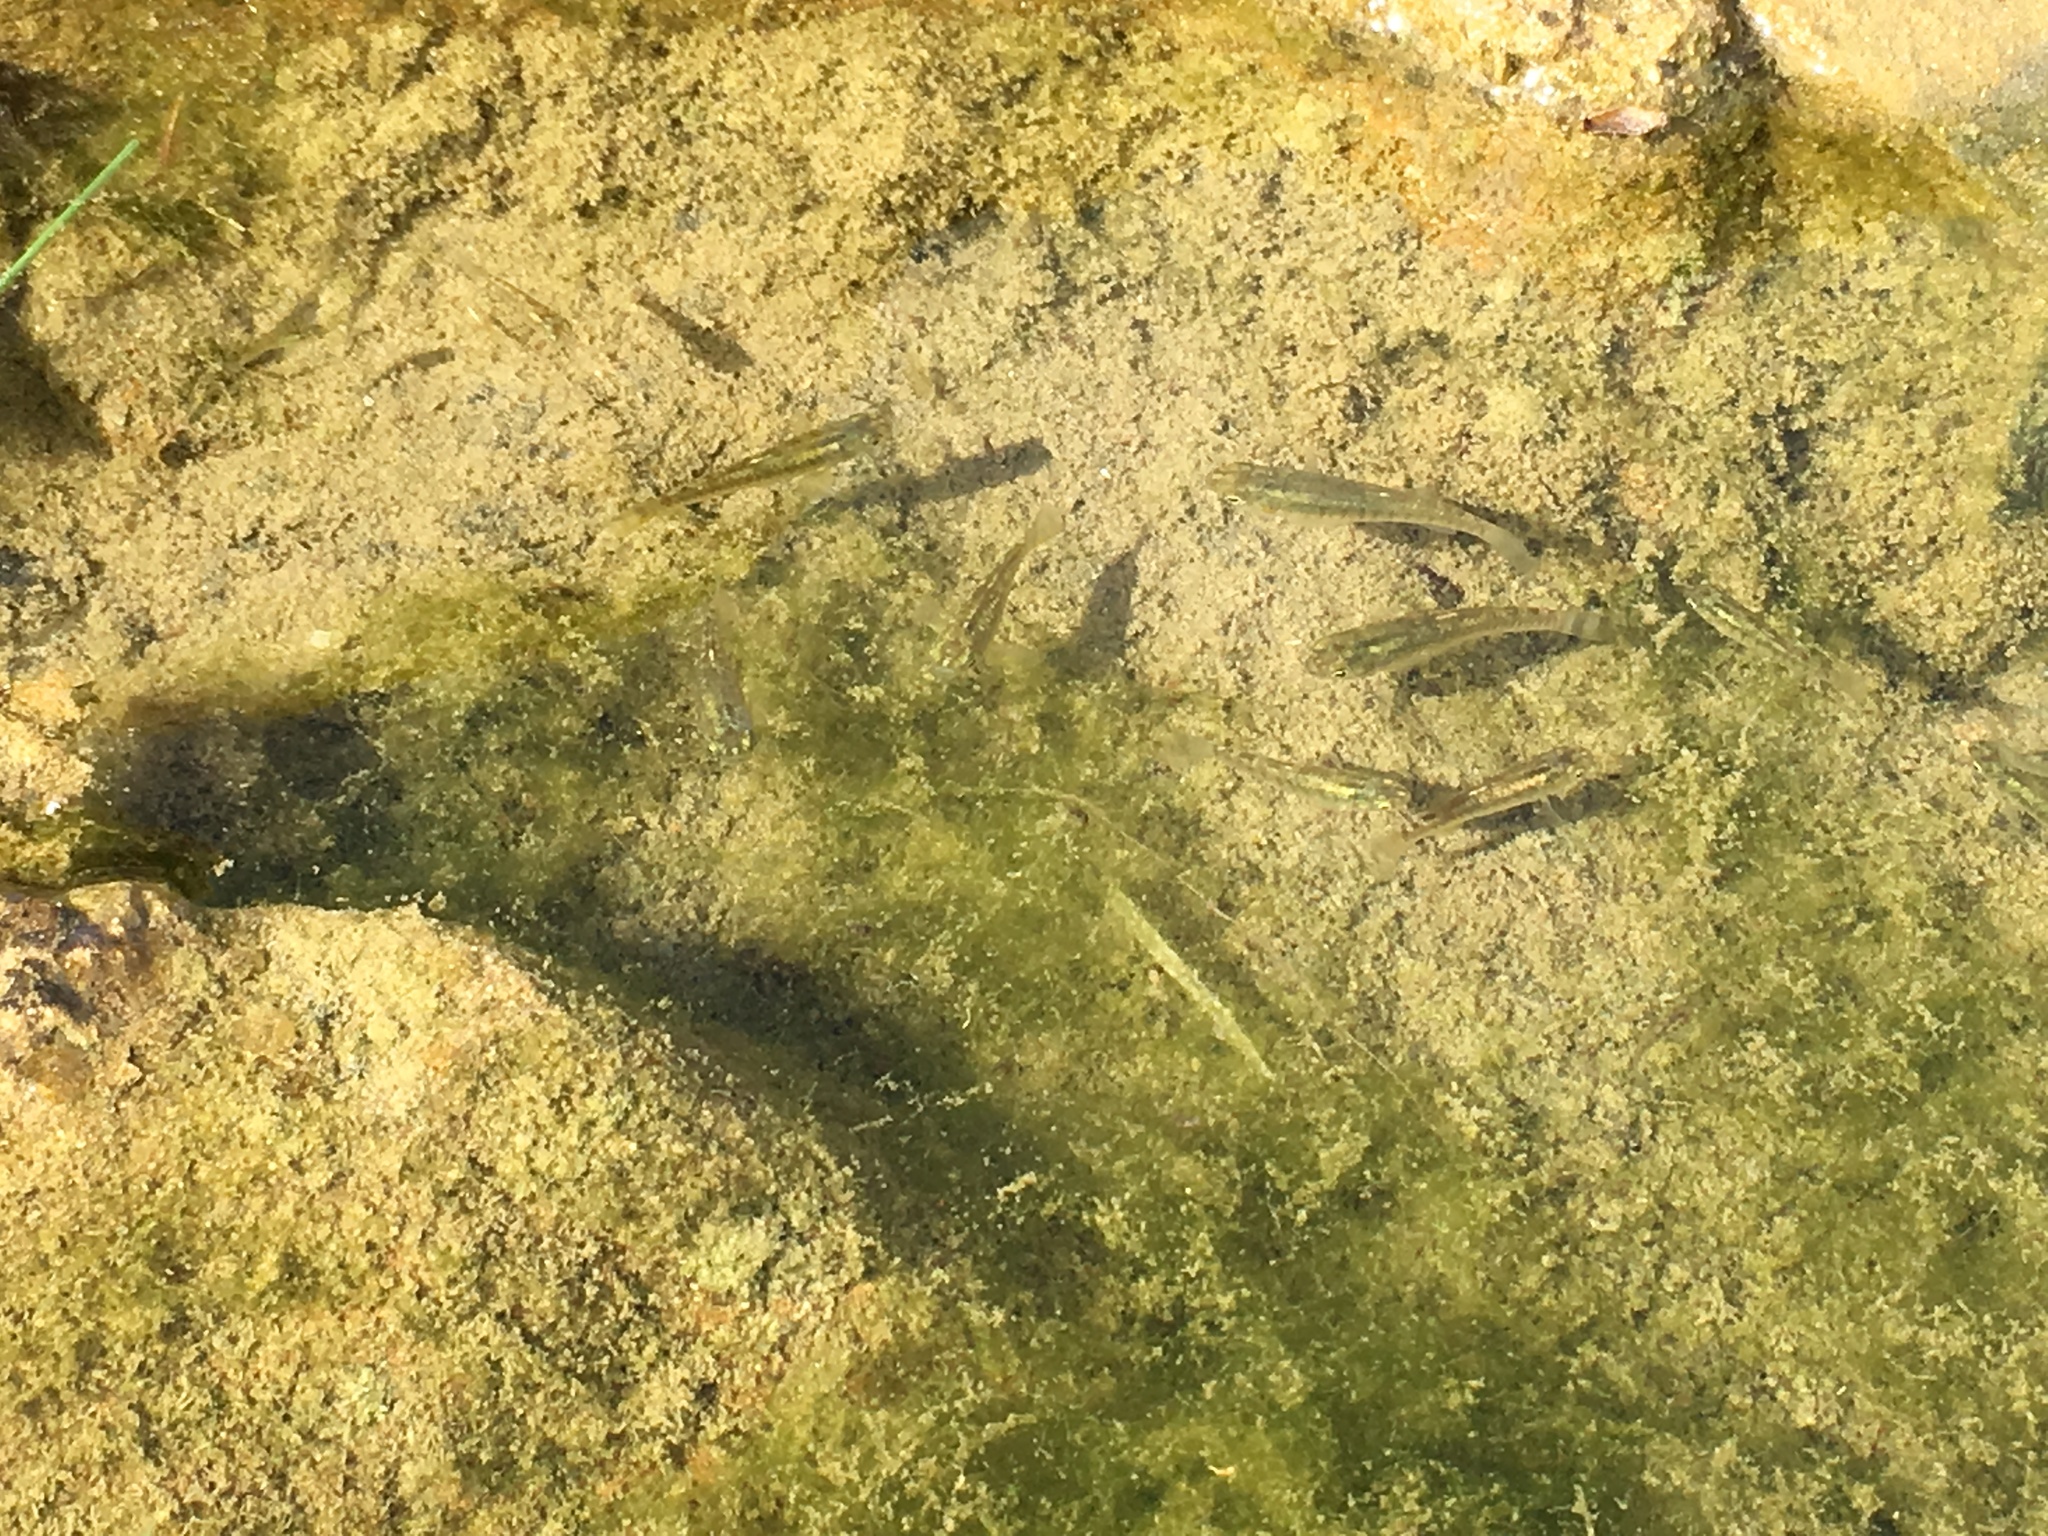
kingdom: Animalia
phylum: Chordata
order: Cyprinodontiformes
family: Cyprinodontidae
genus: Aphanius
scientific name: Aphanius dispar
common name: Arabian toothcarp
